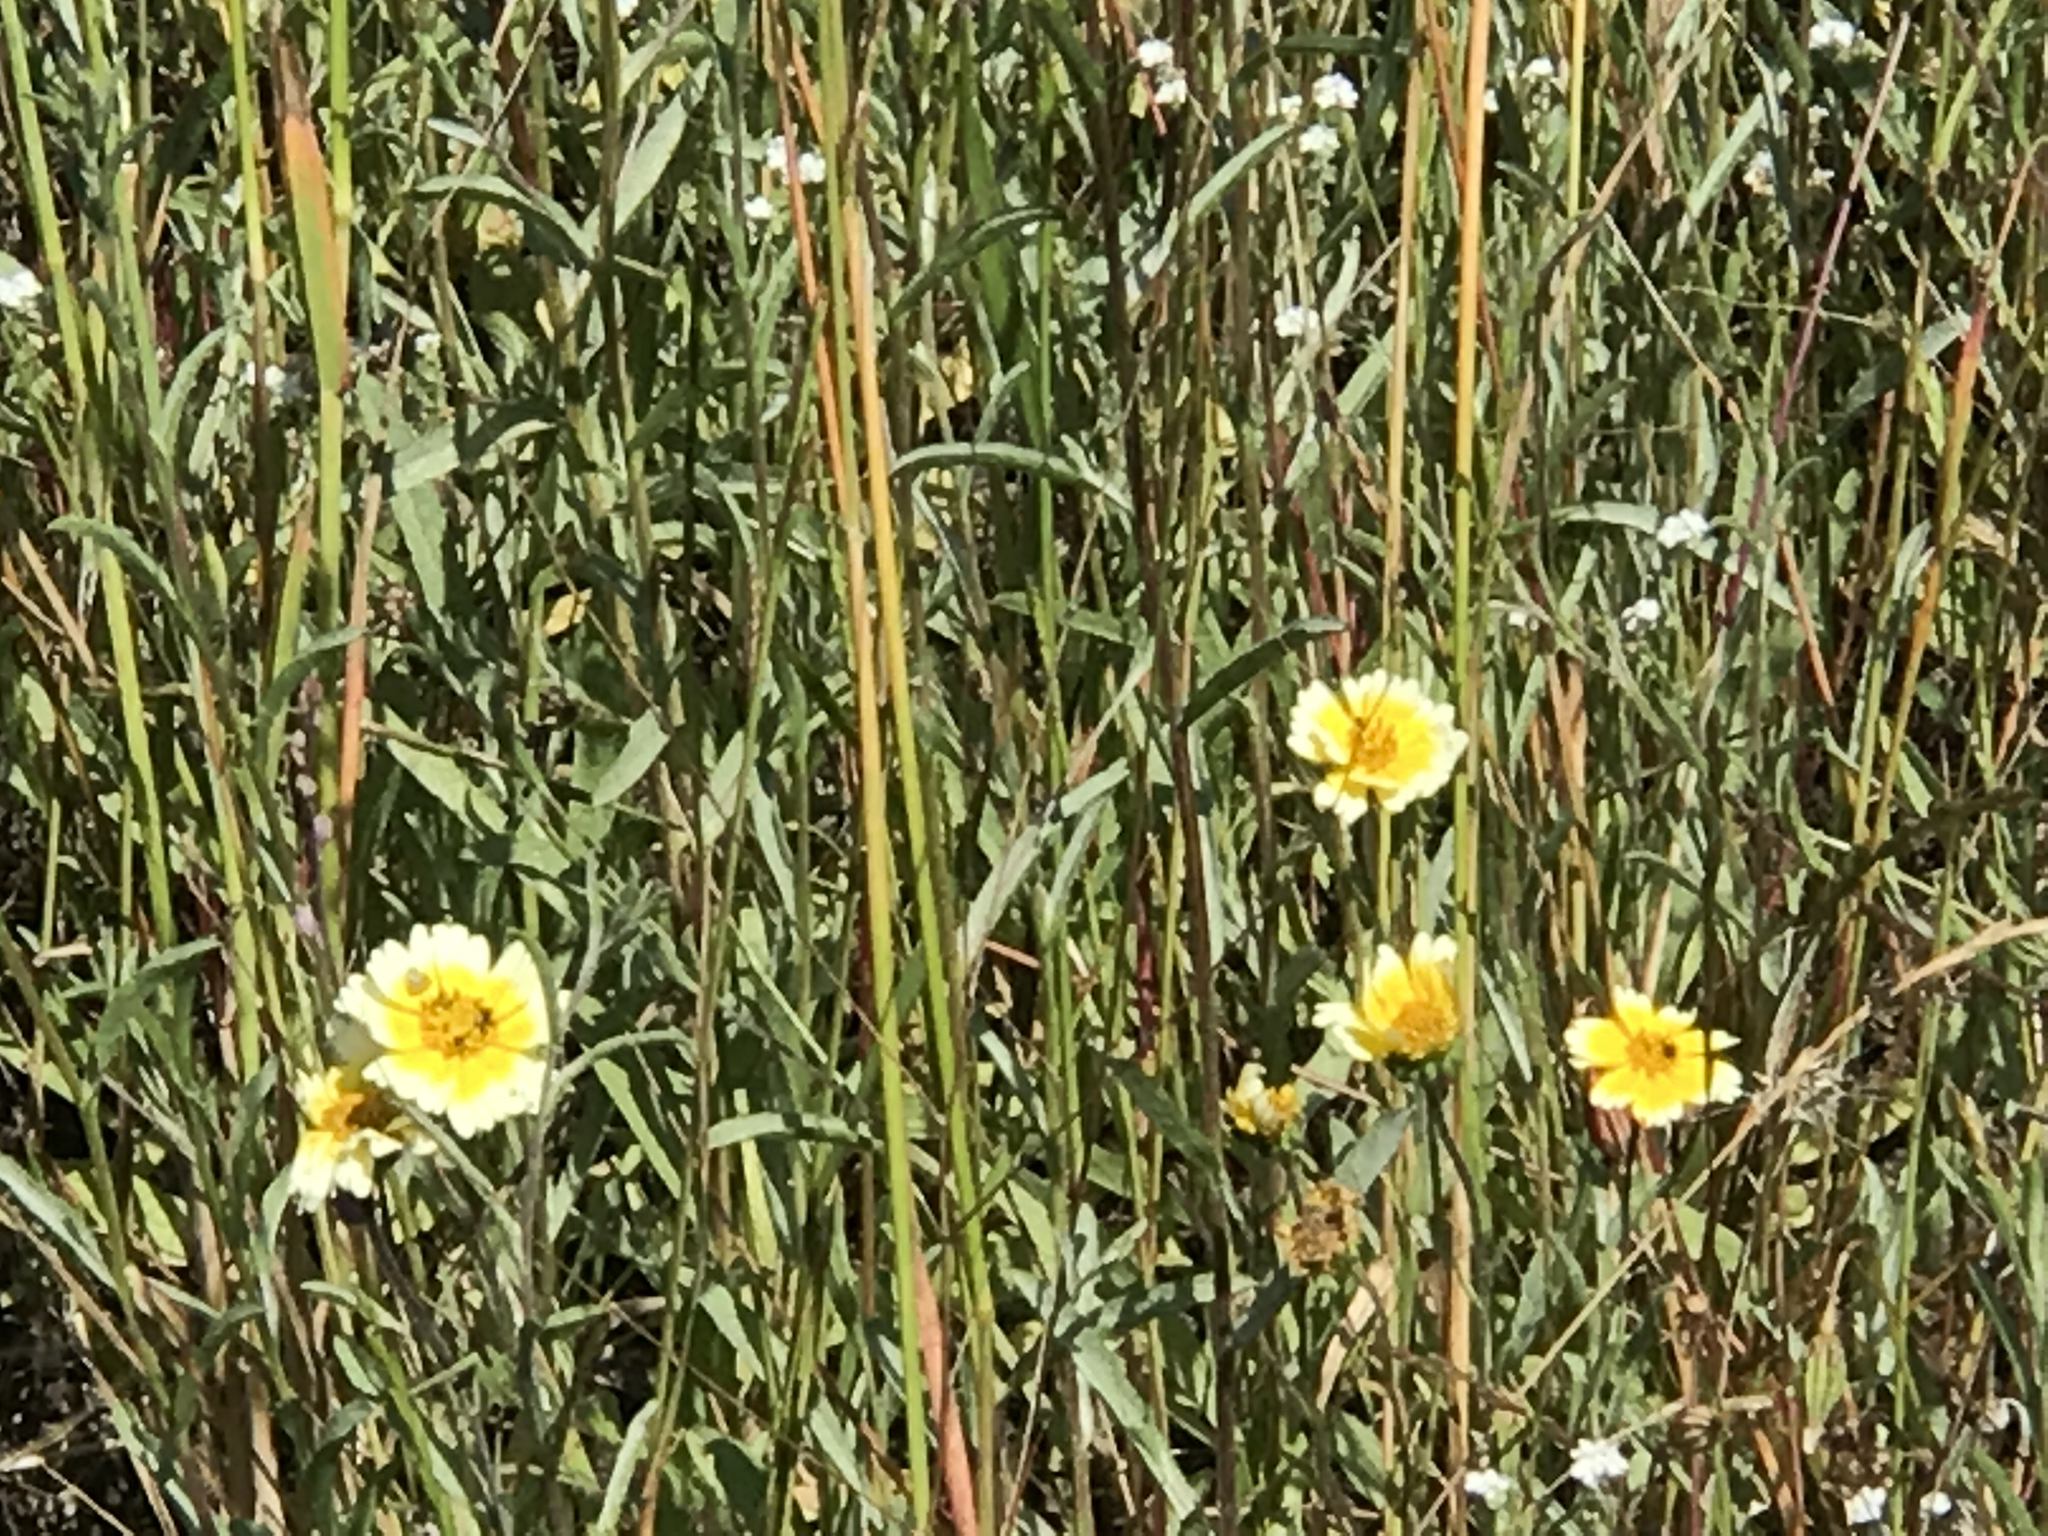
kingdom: Plantae
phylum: Tracheophyta
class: Magnoliopsida
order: Asterales
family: Asteraceae
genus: Layia
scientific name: Layia gaillardioides
